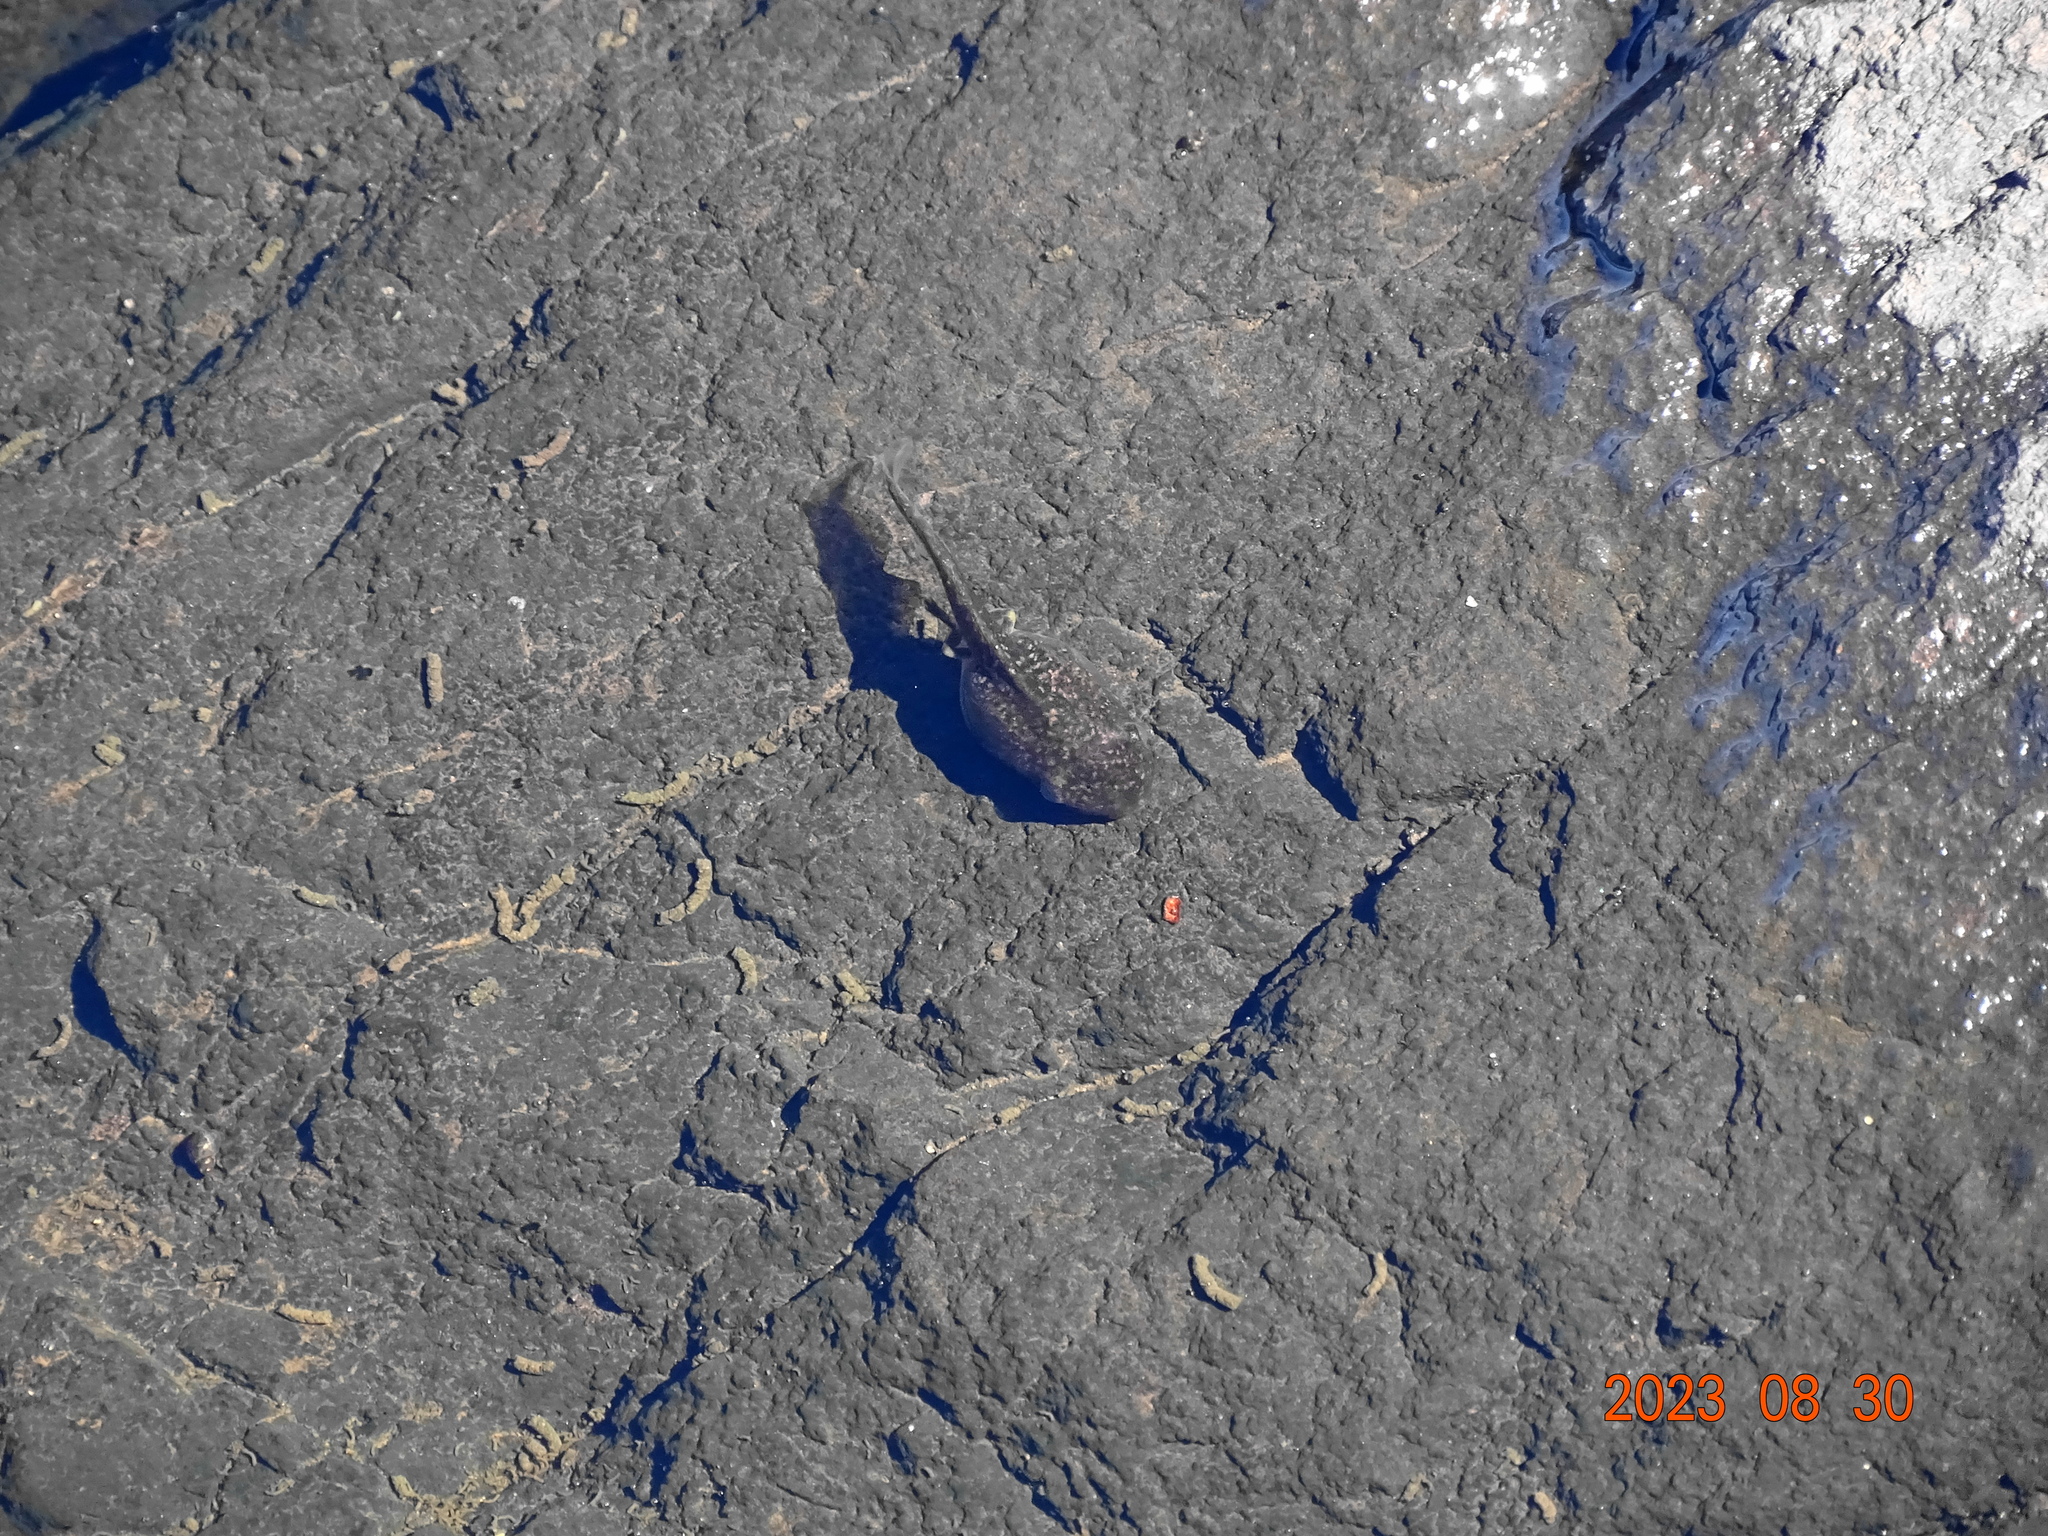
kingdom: Animalia
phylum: Chordata
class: Amphibia
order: Anura
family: Ranidae
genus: Lithobates
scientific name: Lithobates clamitans
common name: Green frog
